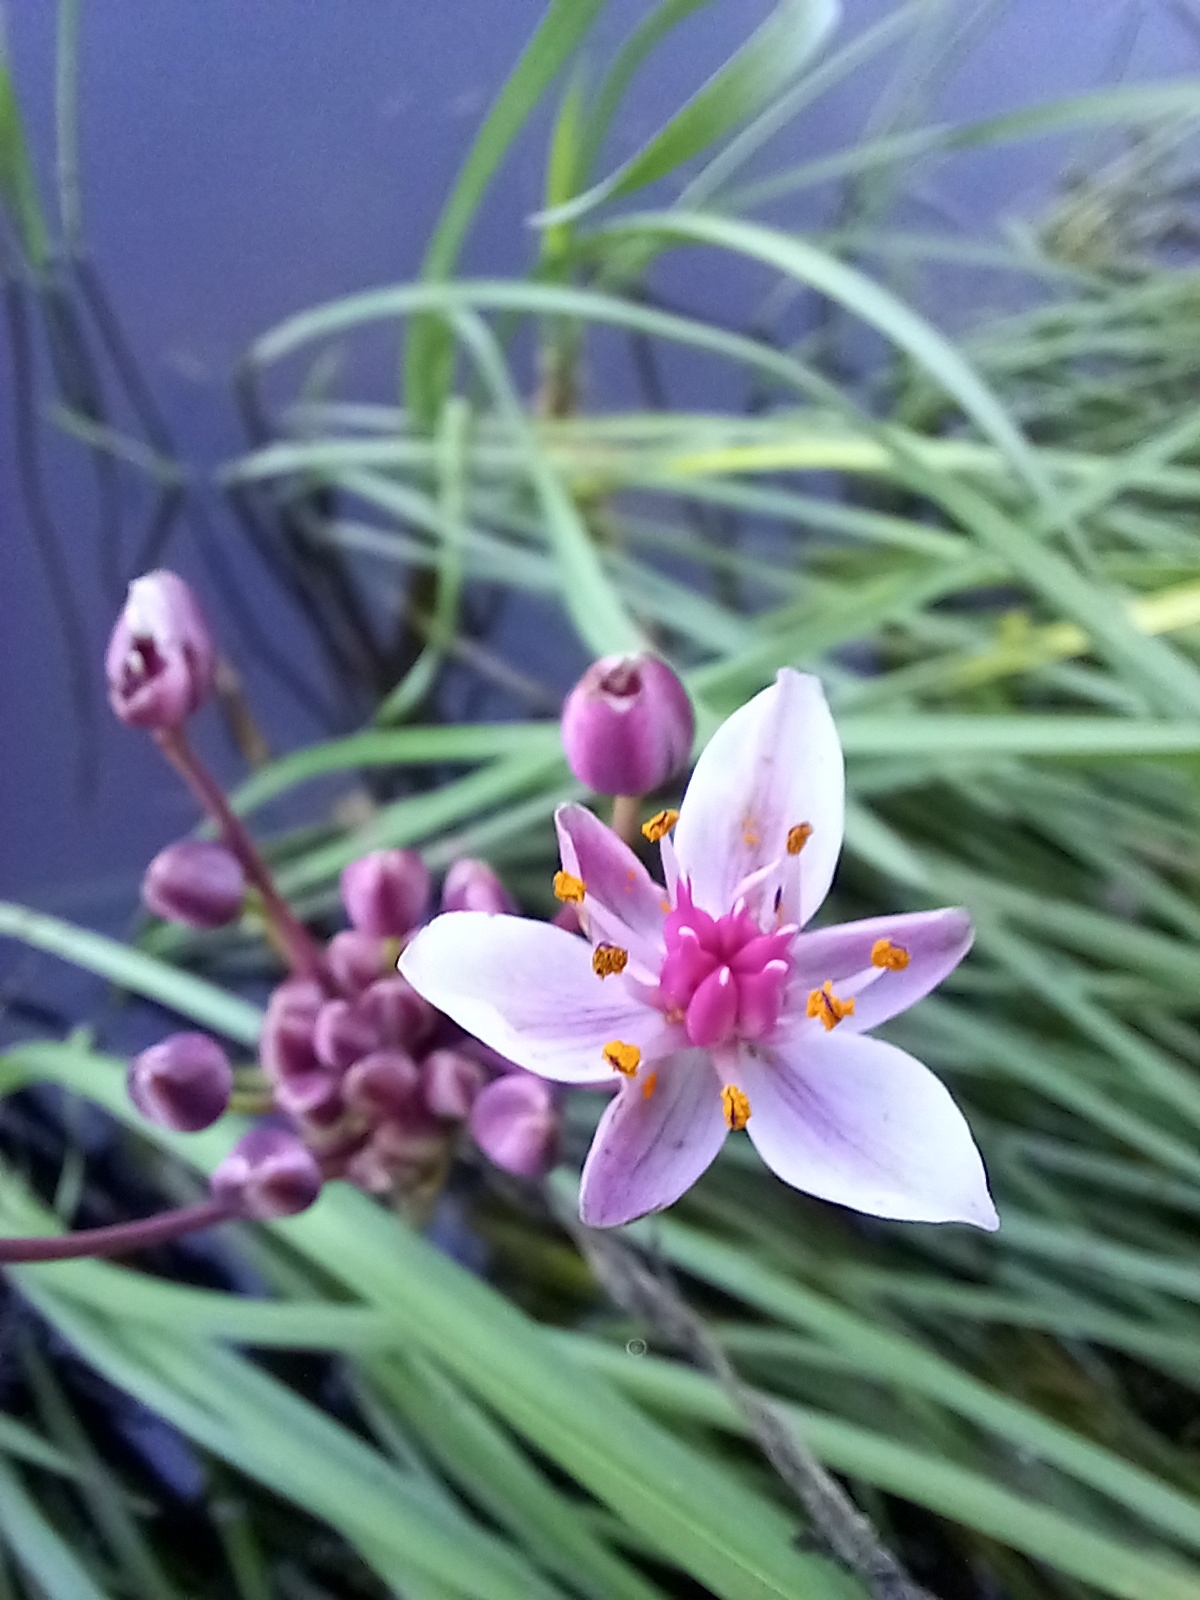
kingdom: Plantae
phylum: Tracheophyta
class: Liliopsida
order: Alismatales
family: Butomaceae
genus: Butomus
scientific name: Butomus umbellatus
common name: Flowering-rush
